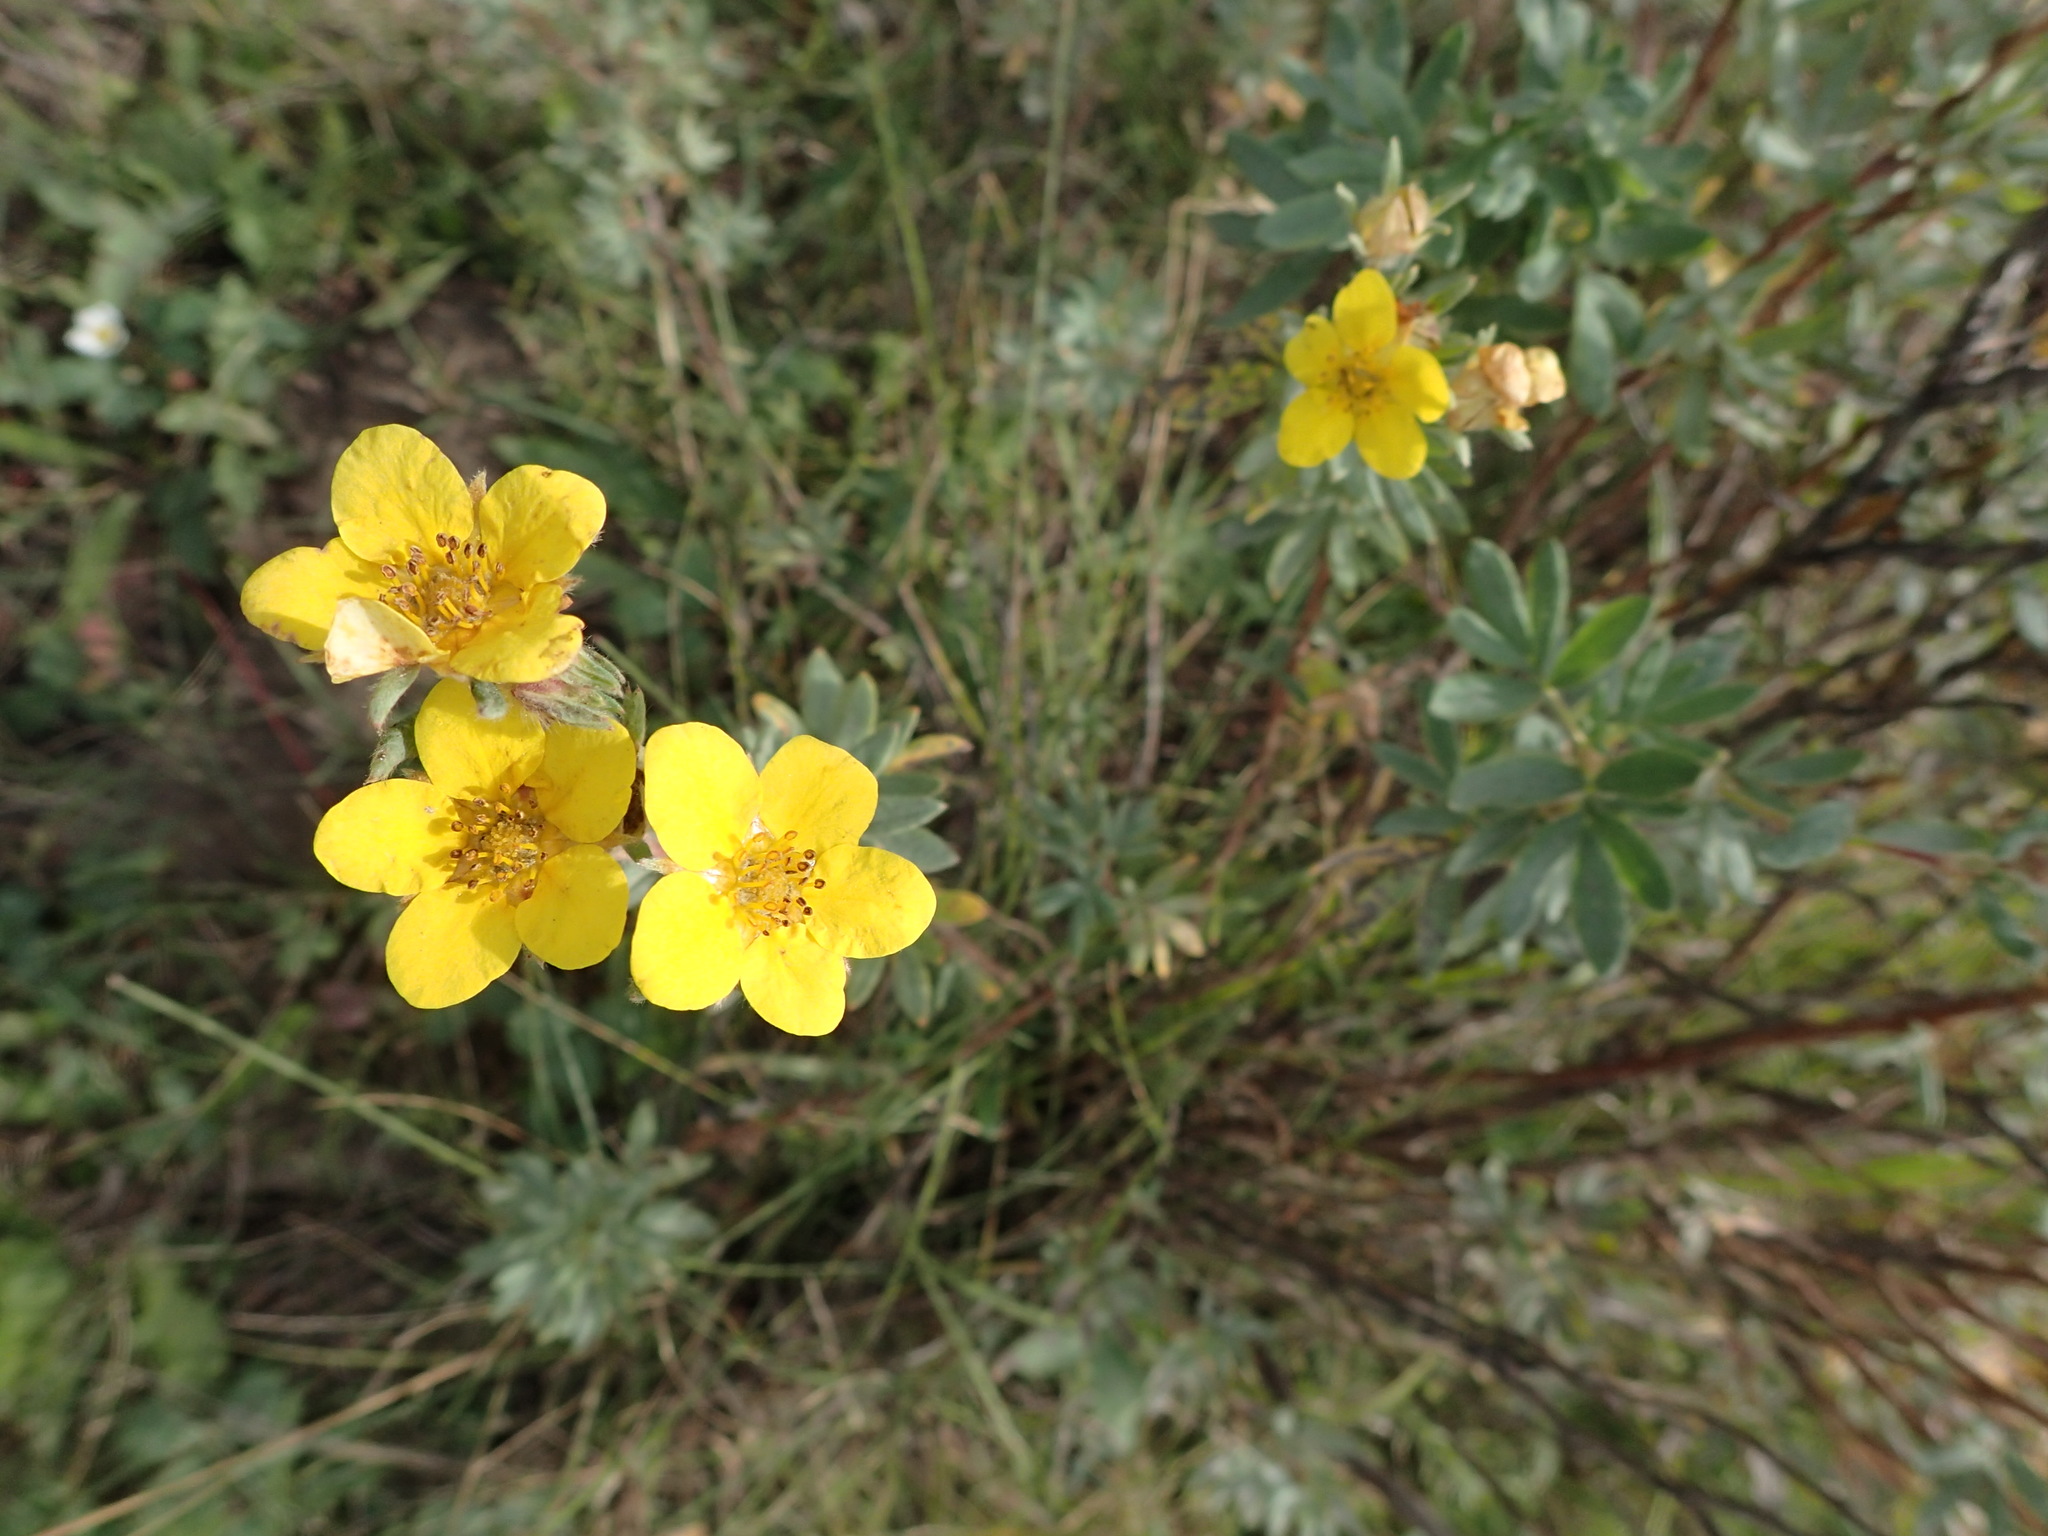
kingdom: Plantae
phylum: Tracheophyta
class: Magnoliopsida
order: Rosales
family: Rosaceae
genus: Dasiphora
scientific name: Dasiphora fruticosa
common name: Shrubby cinquefoil
